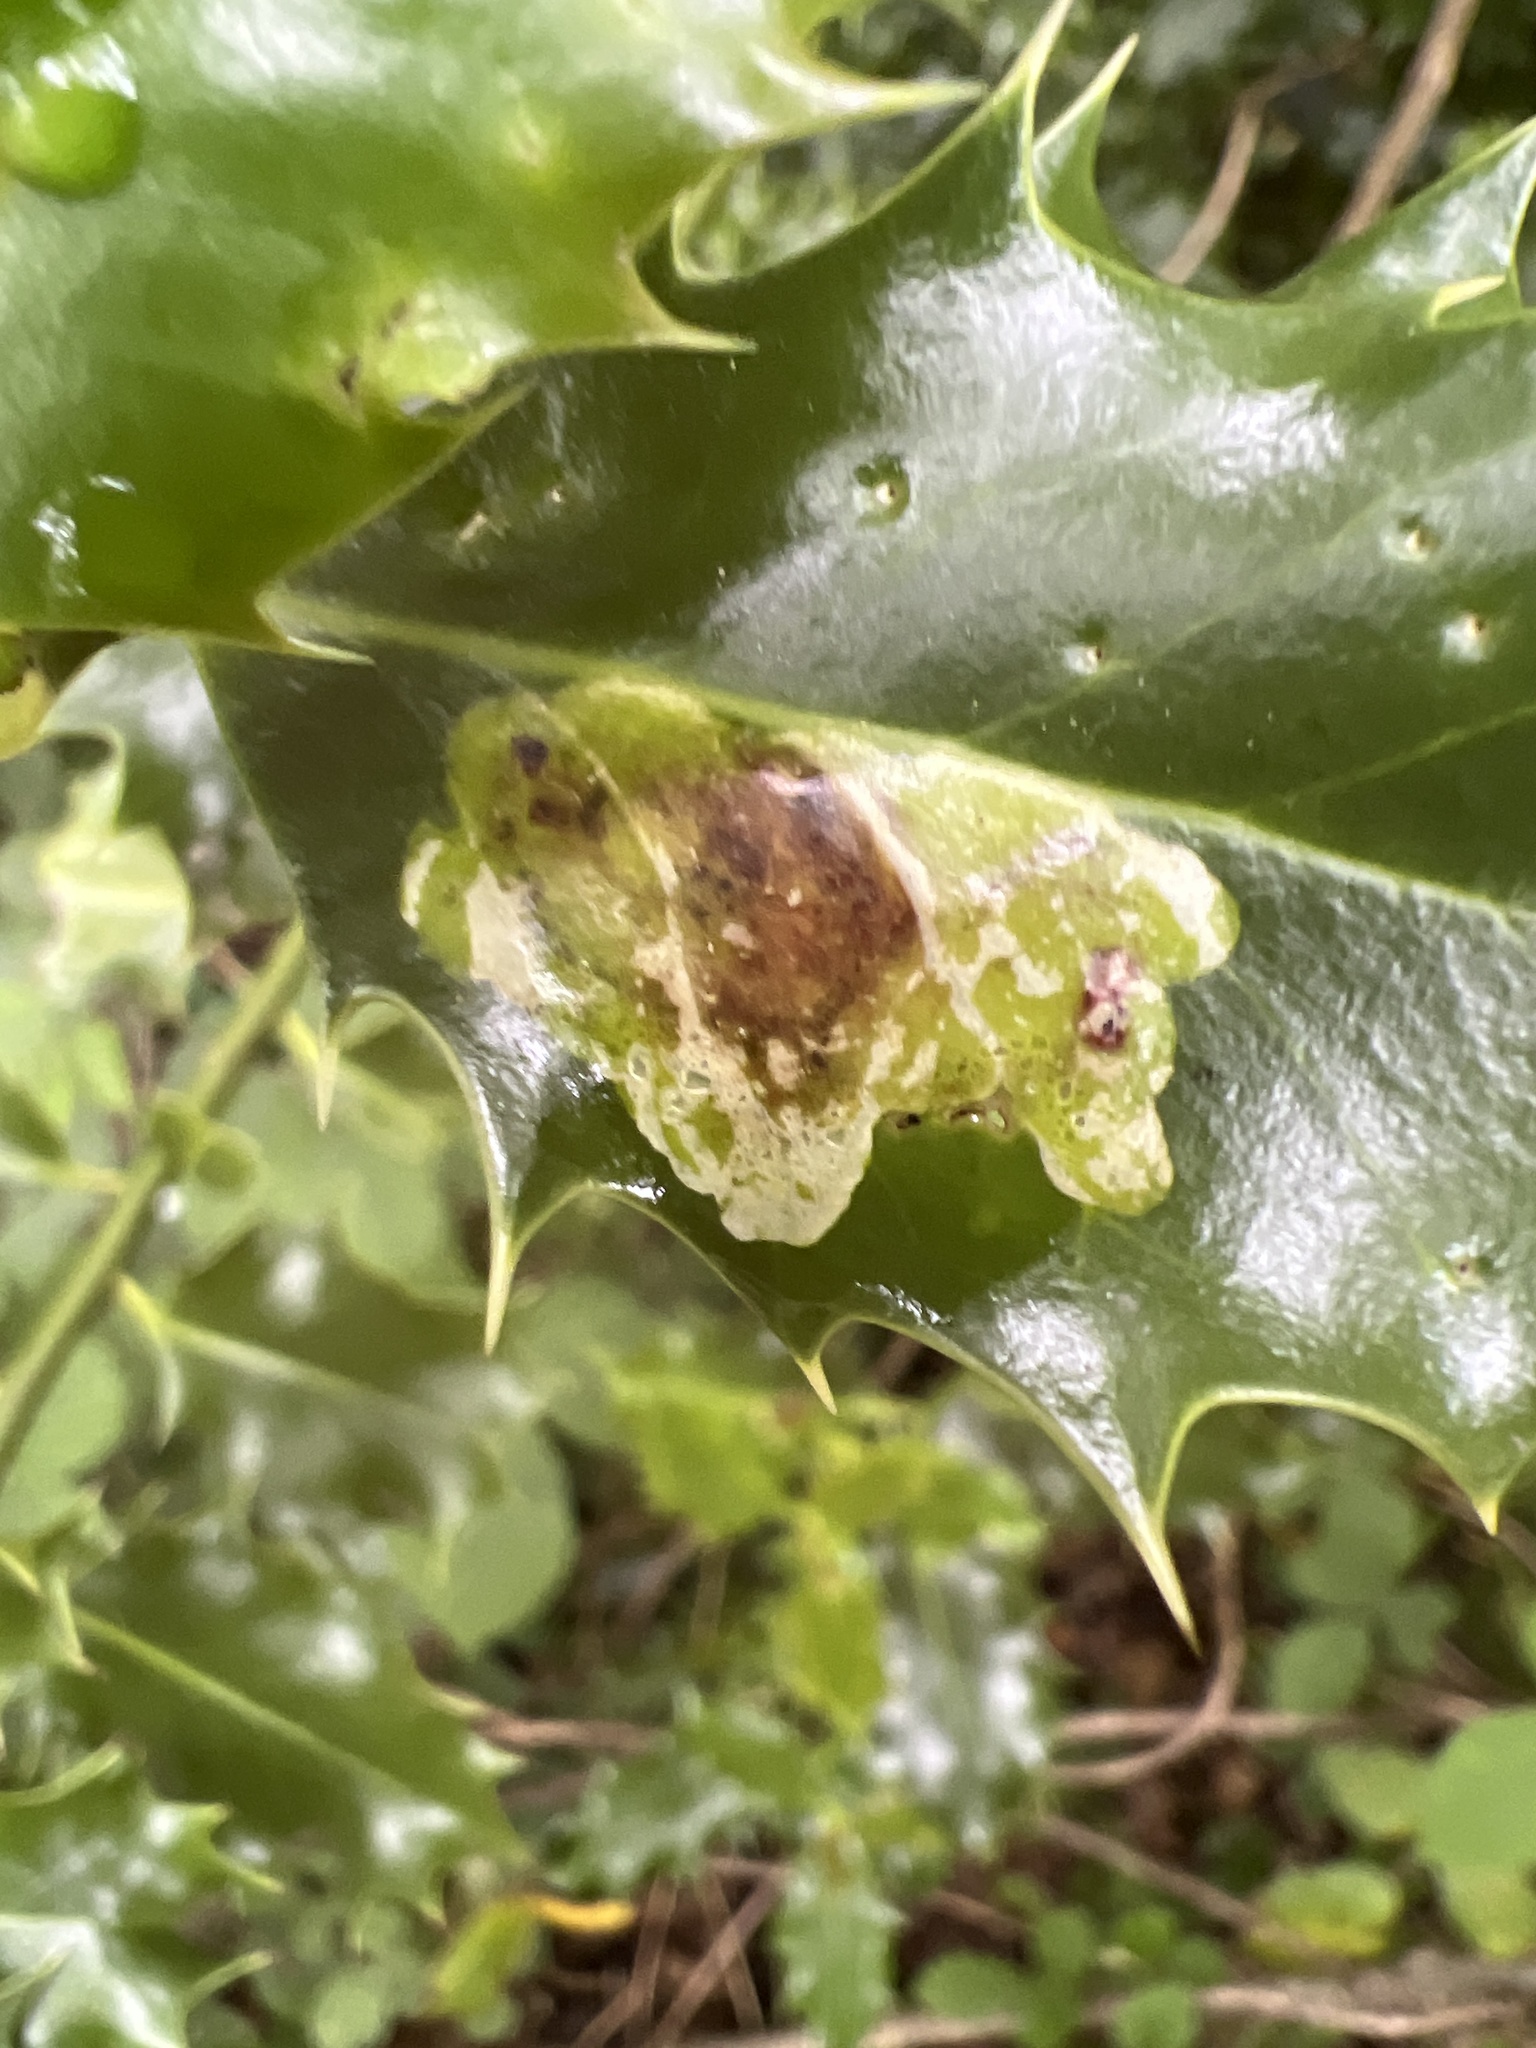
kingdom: Animalia
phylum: Arthropoda
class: Insecta
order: Diptera
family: Agromyzidae
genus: Phytomyza
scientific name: Phytomyza ilicis
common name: Holly leafminer
